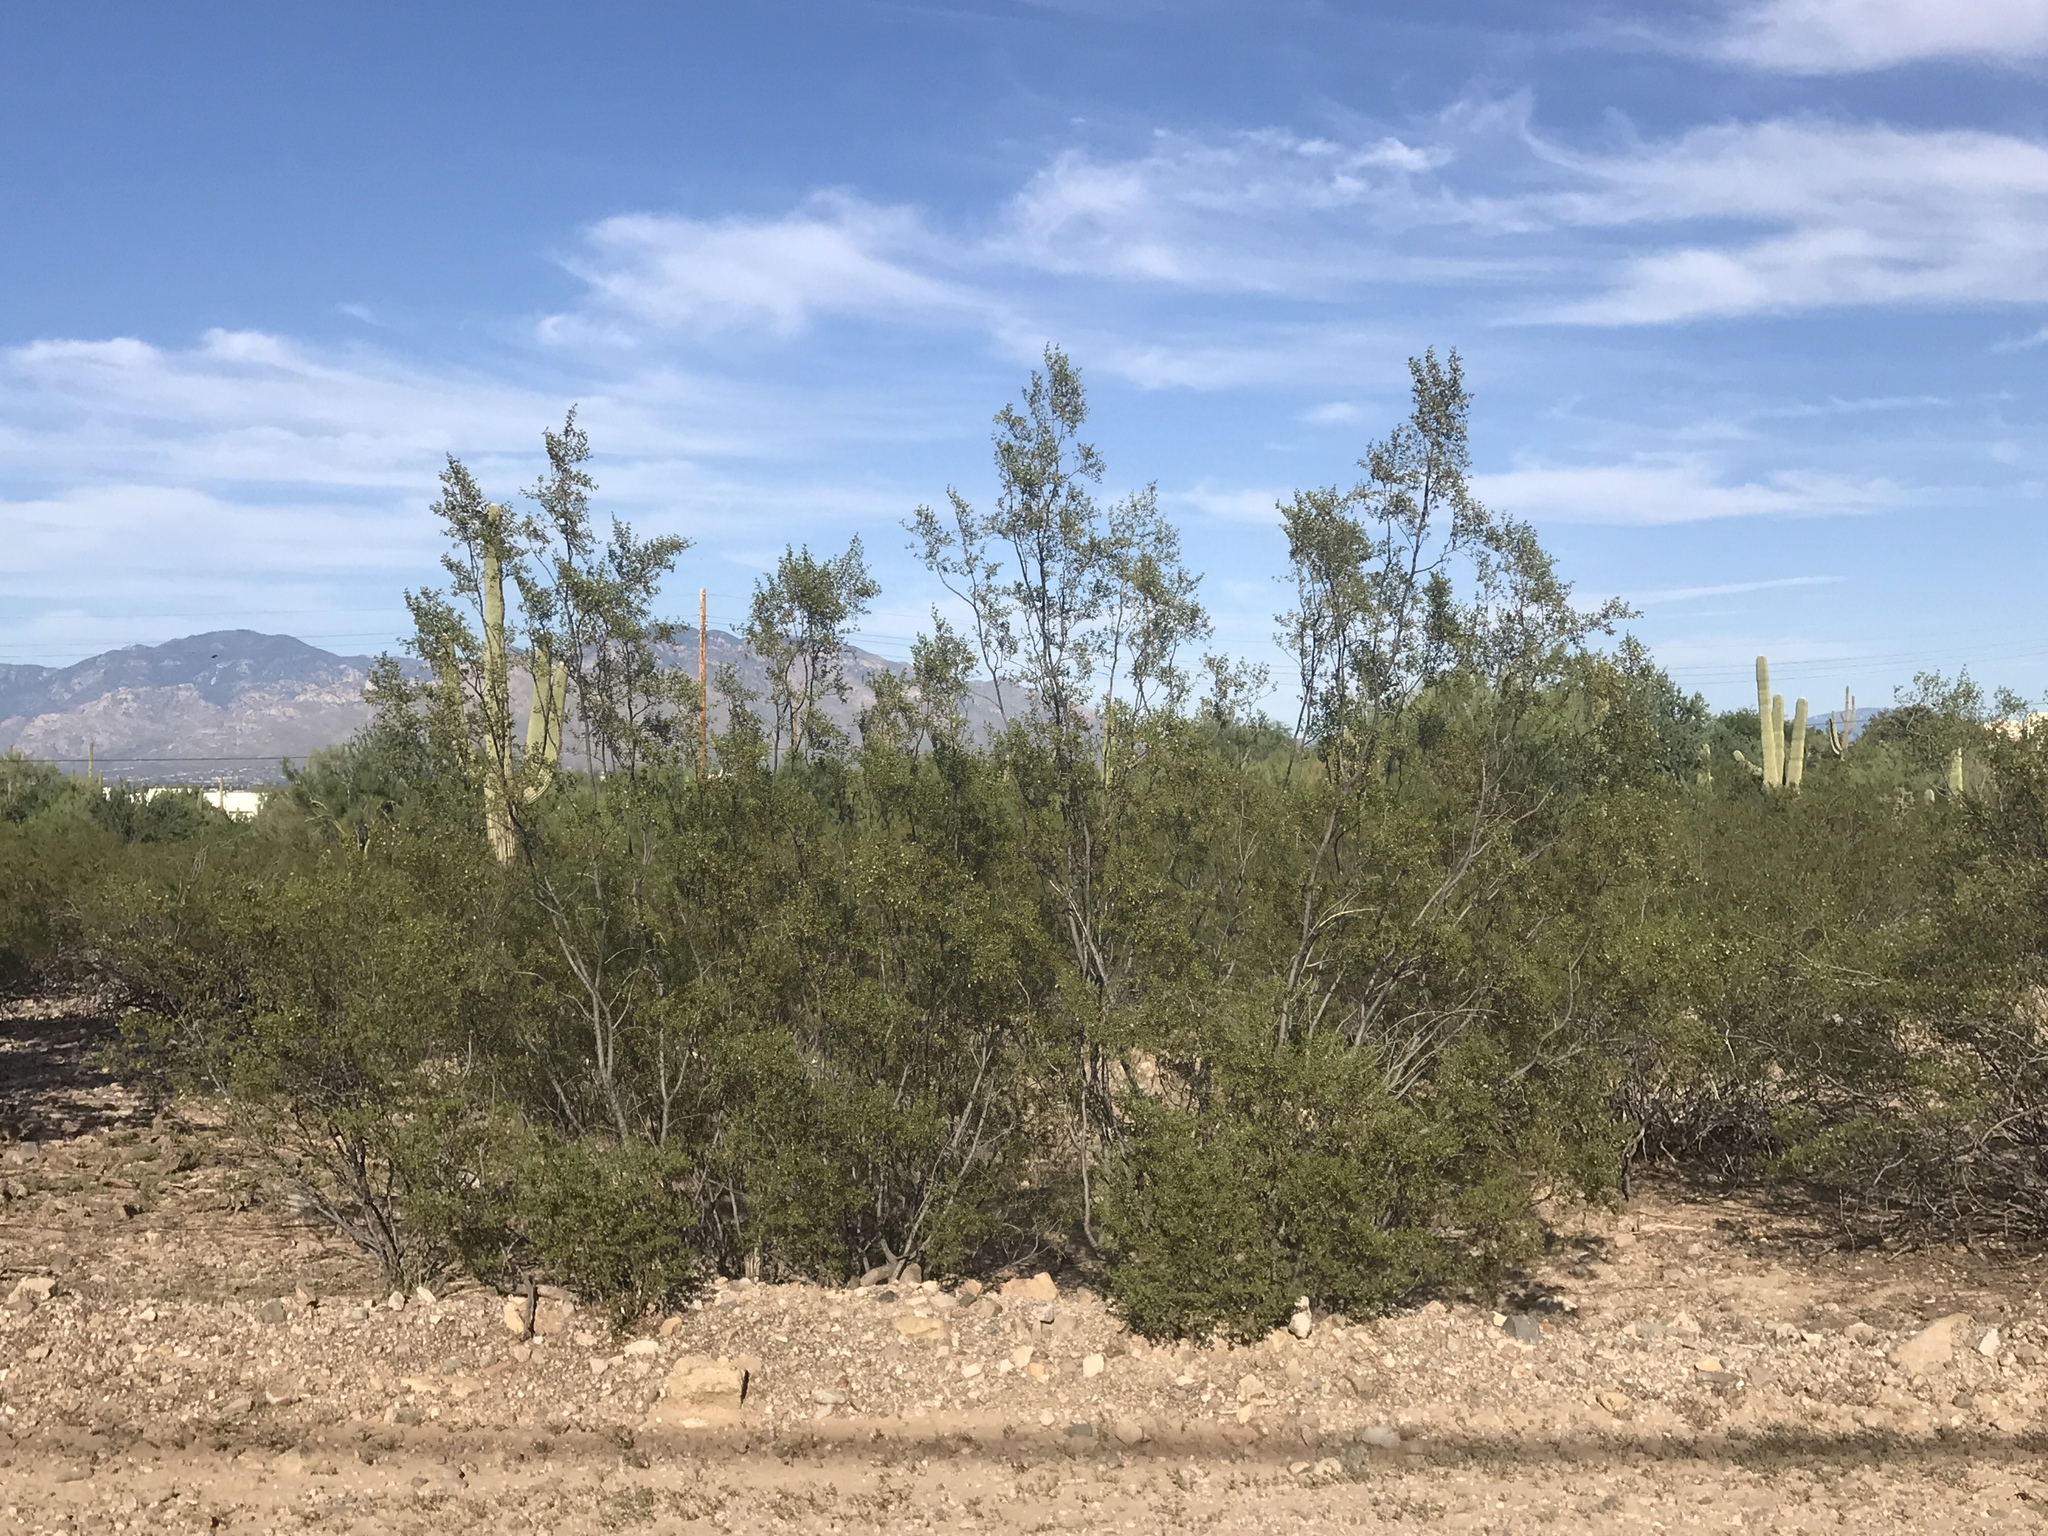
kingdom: Plantae
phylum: Tracheophyta
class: Magnoliopsida
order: Zygophyllales
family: Zygophyllaceae
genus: Larrea
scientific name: Larrea tridentata
